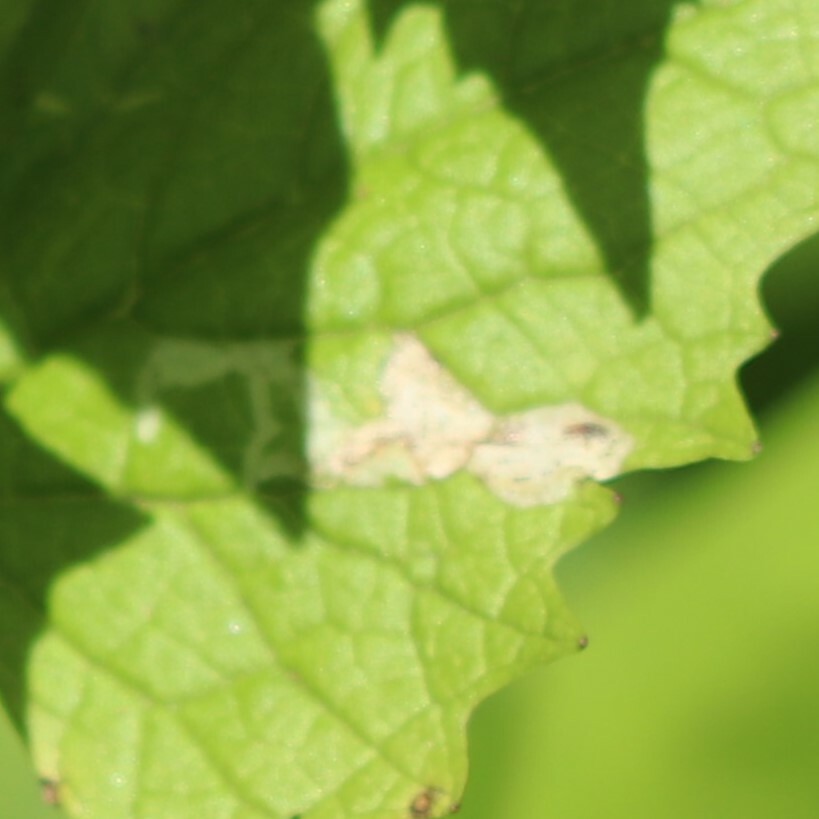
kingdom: Animalia
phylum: Arthropoda
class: Insecta
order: Diptera
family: Agromyzidae
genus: Liriomyza
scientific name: Liriomyza brassicae
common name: Serpentine leaf miner
